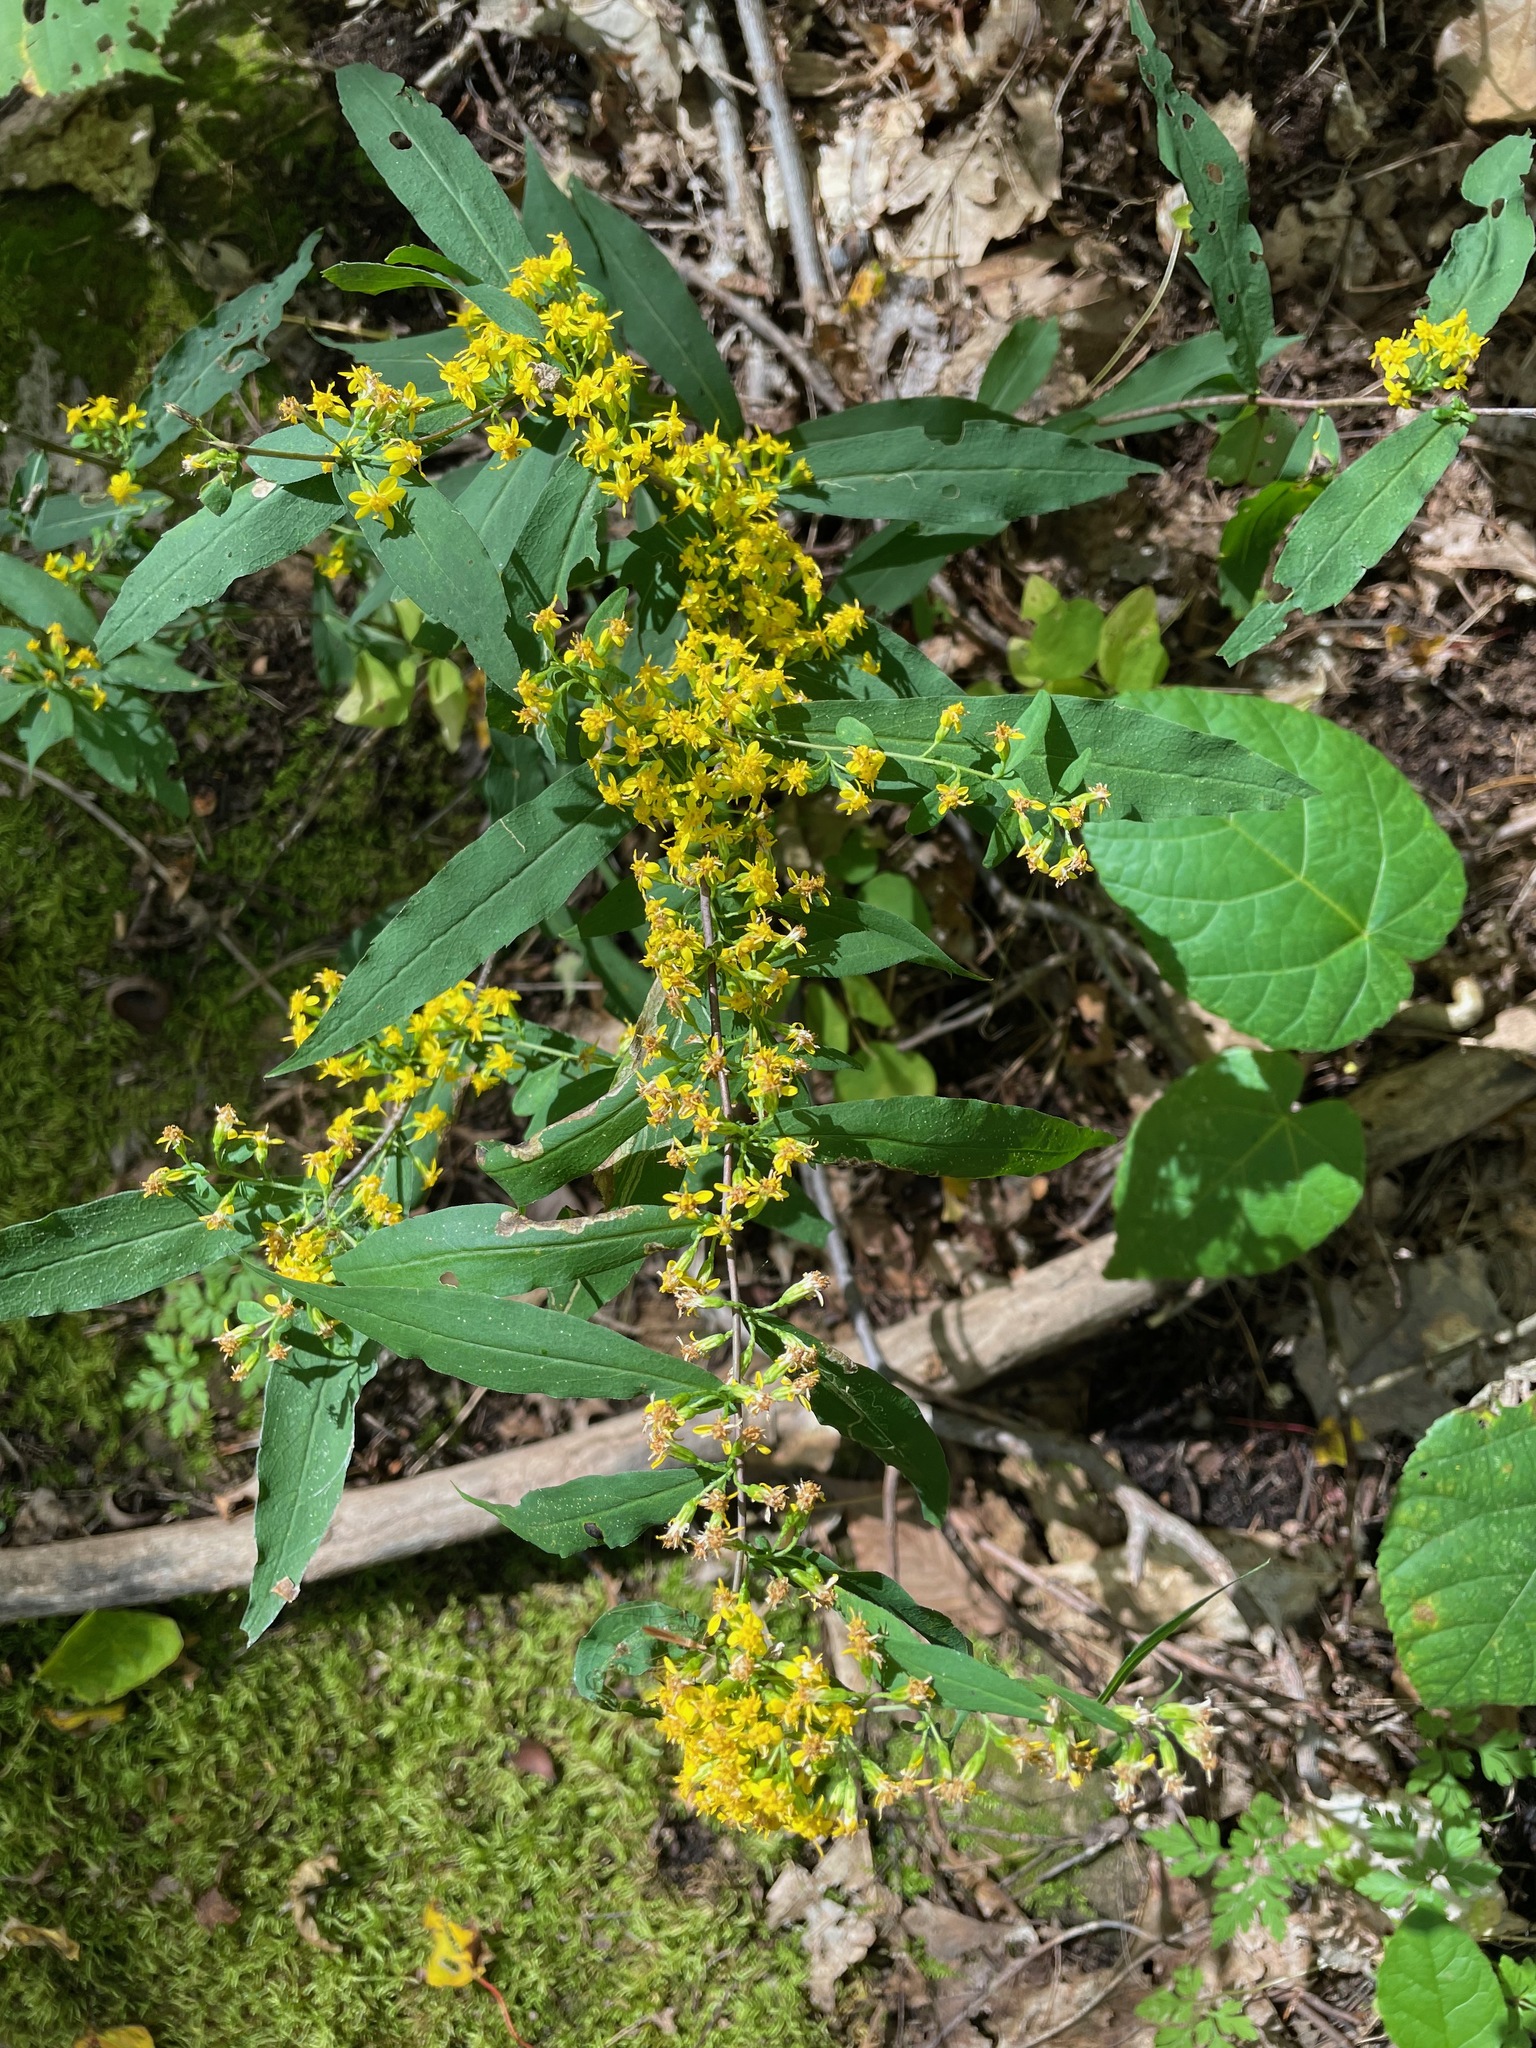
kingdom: Plantae
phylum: Tracheophyta
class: Magnoliopsida
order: Asterales
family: Asteraceae
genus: Solidago
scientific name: Solidago caesia
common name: Woodland goldenrod
